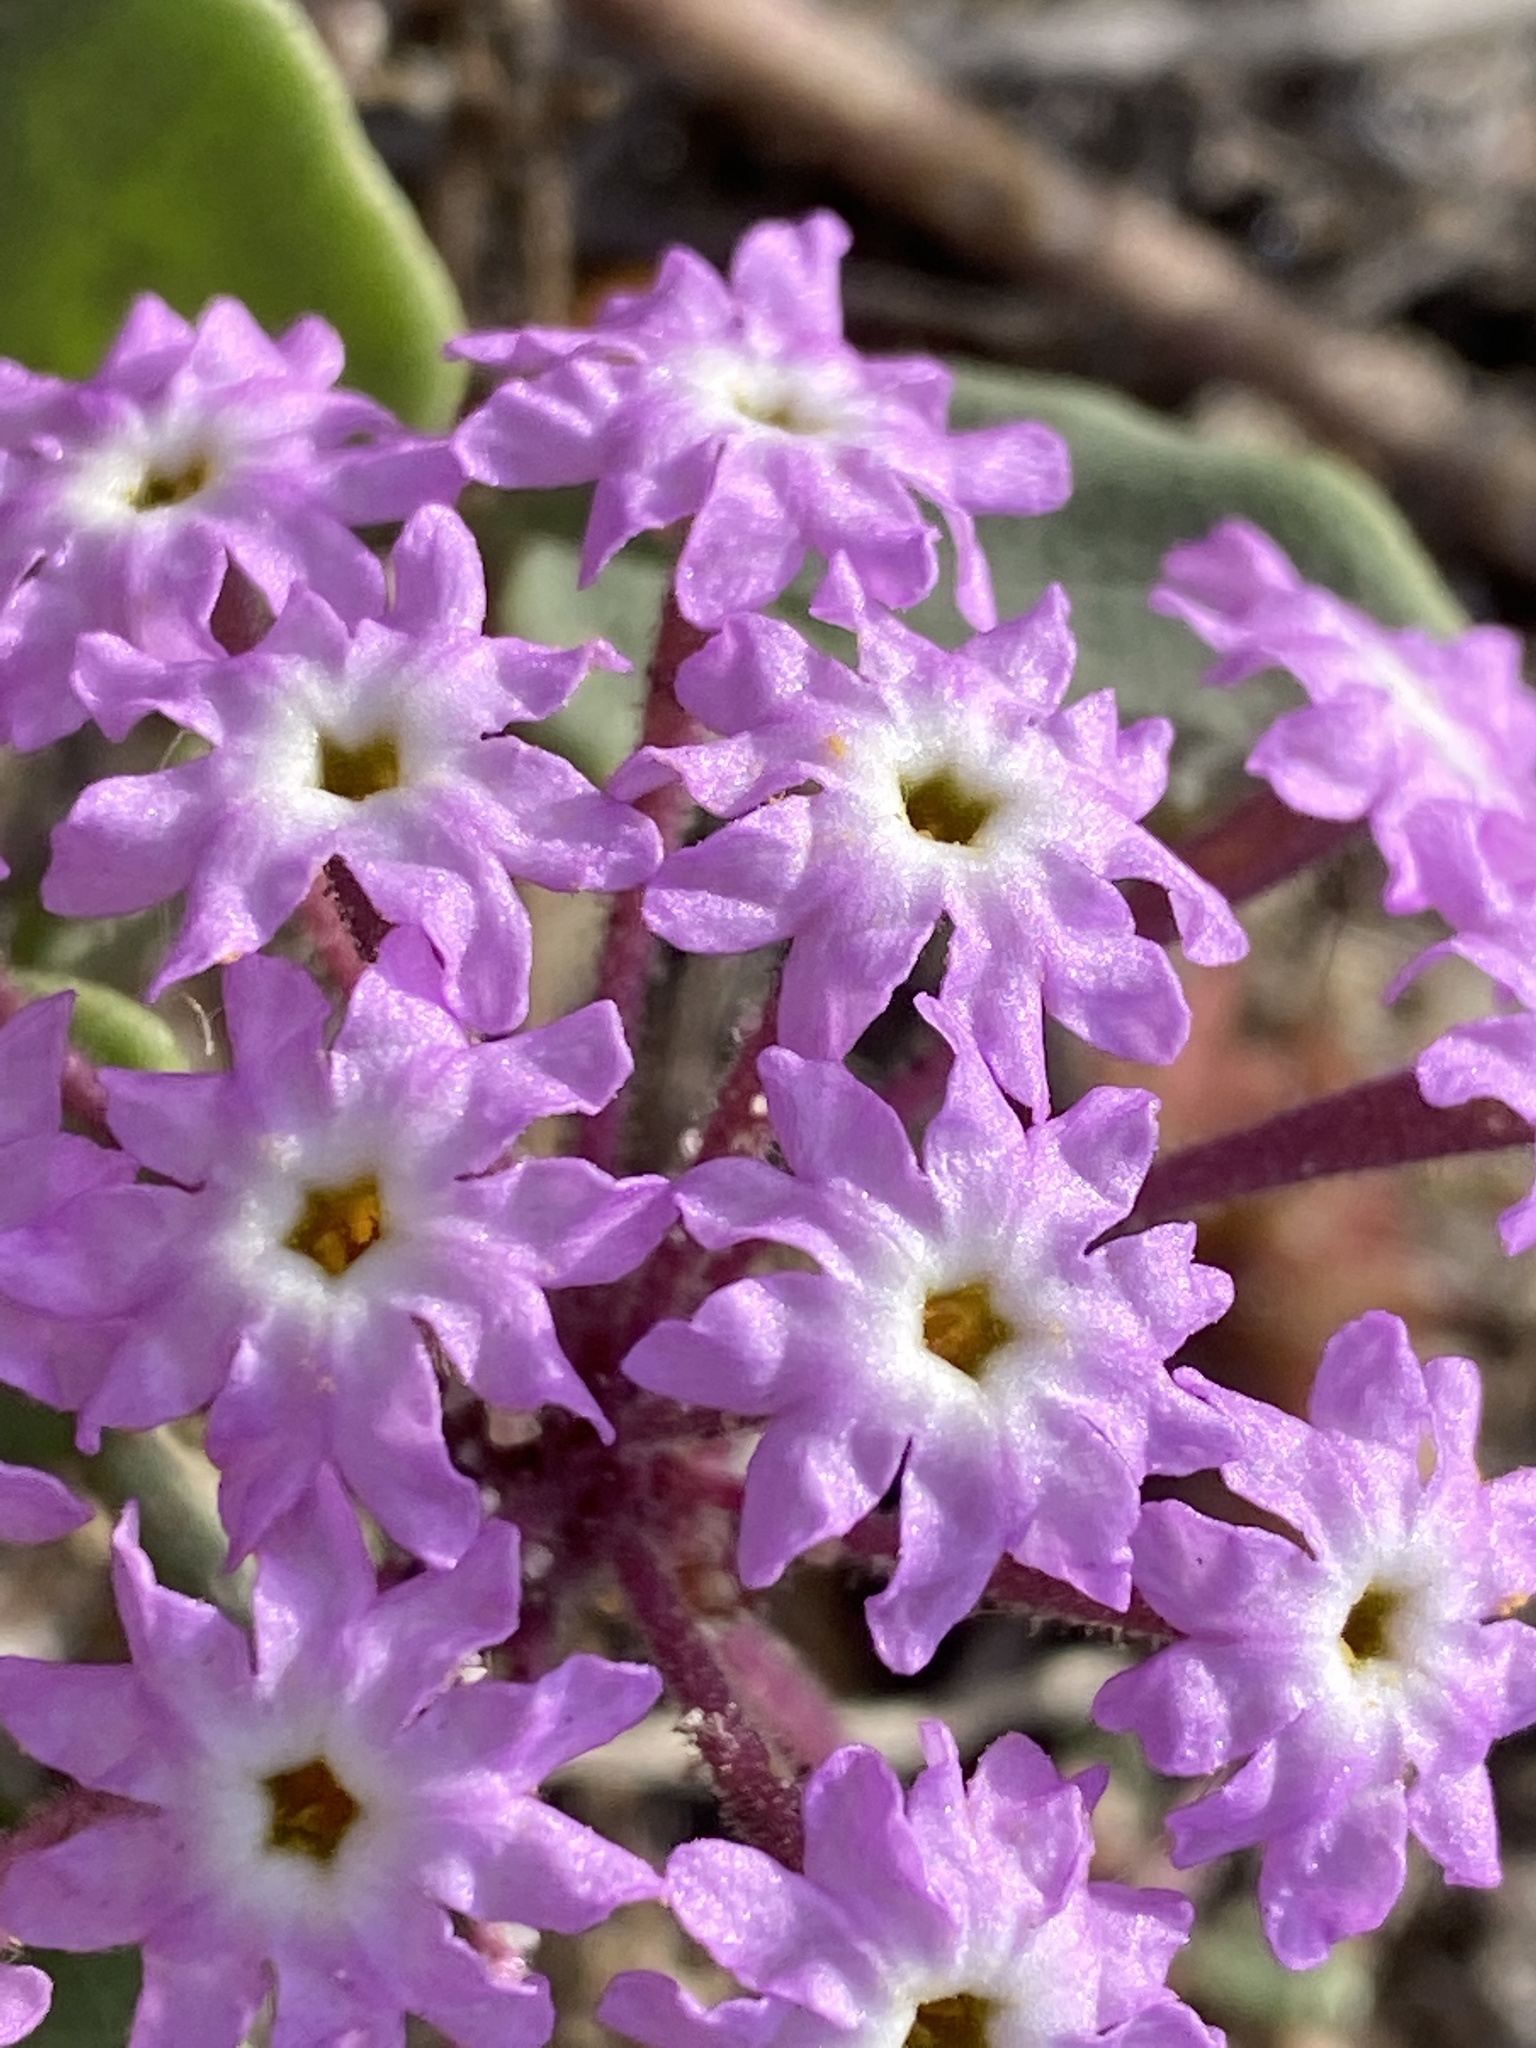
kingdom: Plantae
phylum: Tracheophyta
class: Magnoliopsida
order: Caryophyllales
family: Nyctaginaceae
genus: Abronia
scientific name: Abronia umbellata
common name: Sand-verbena
